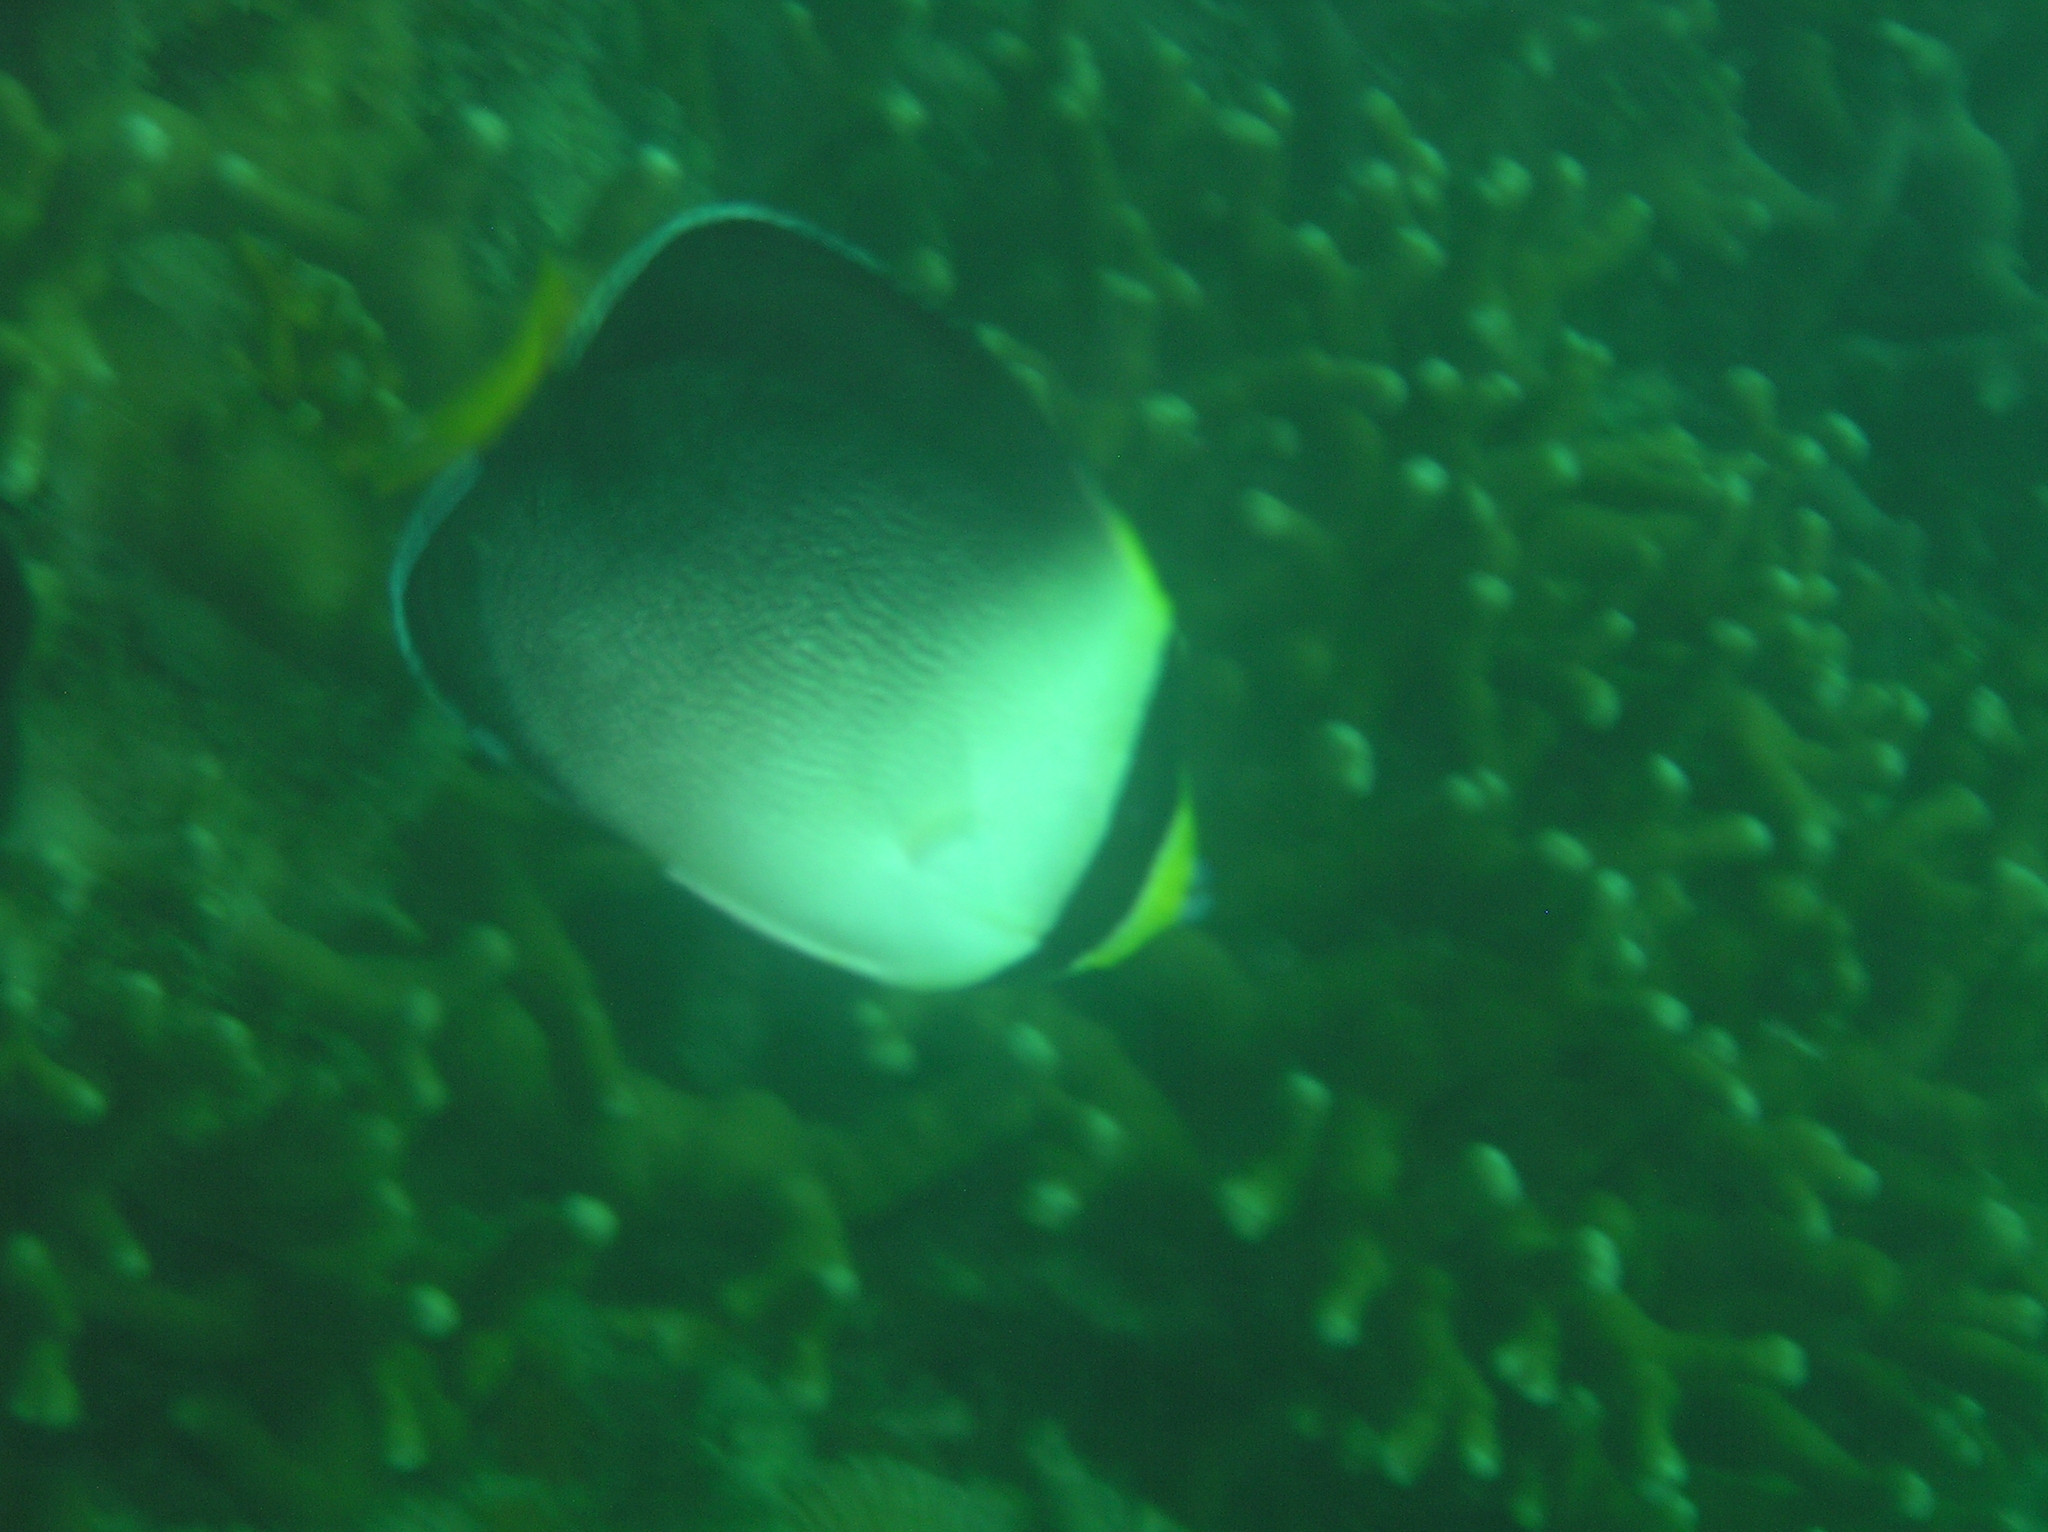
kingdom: Animalia
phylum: Chordata
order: Perciformes
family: Pomacanthidae
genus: Chaetodontoplus
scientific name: Chaetodontoplus mesoleucus
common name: Vermiculated angelfish
